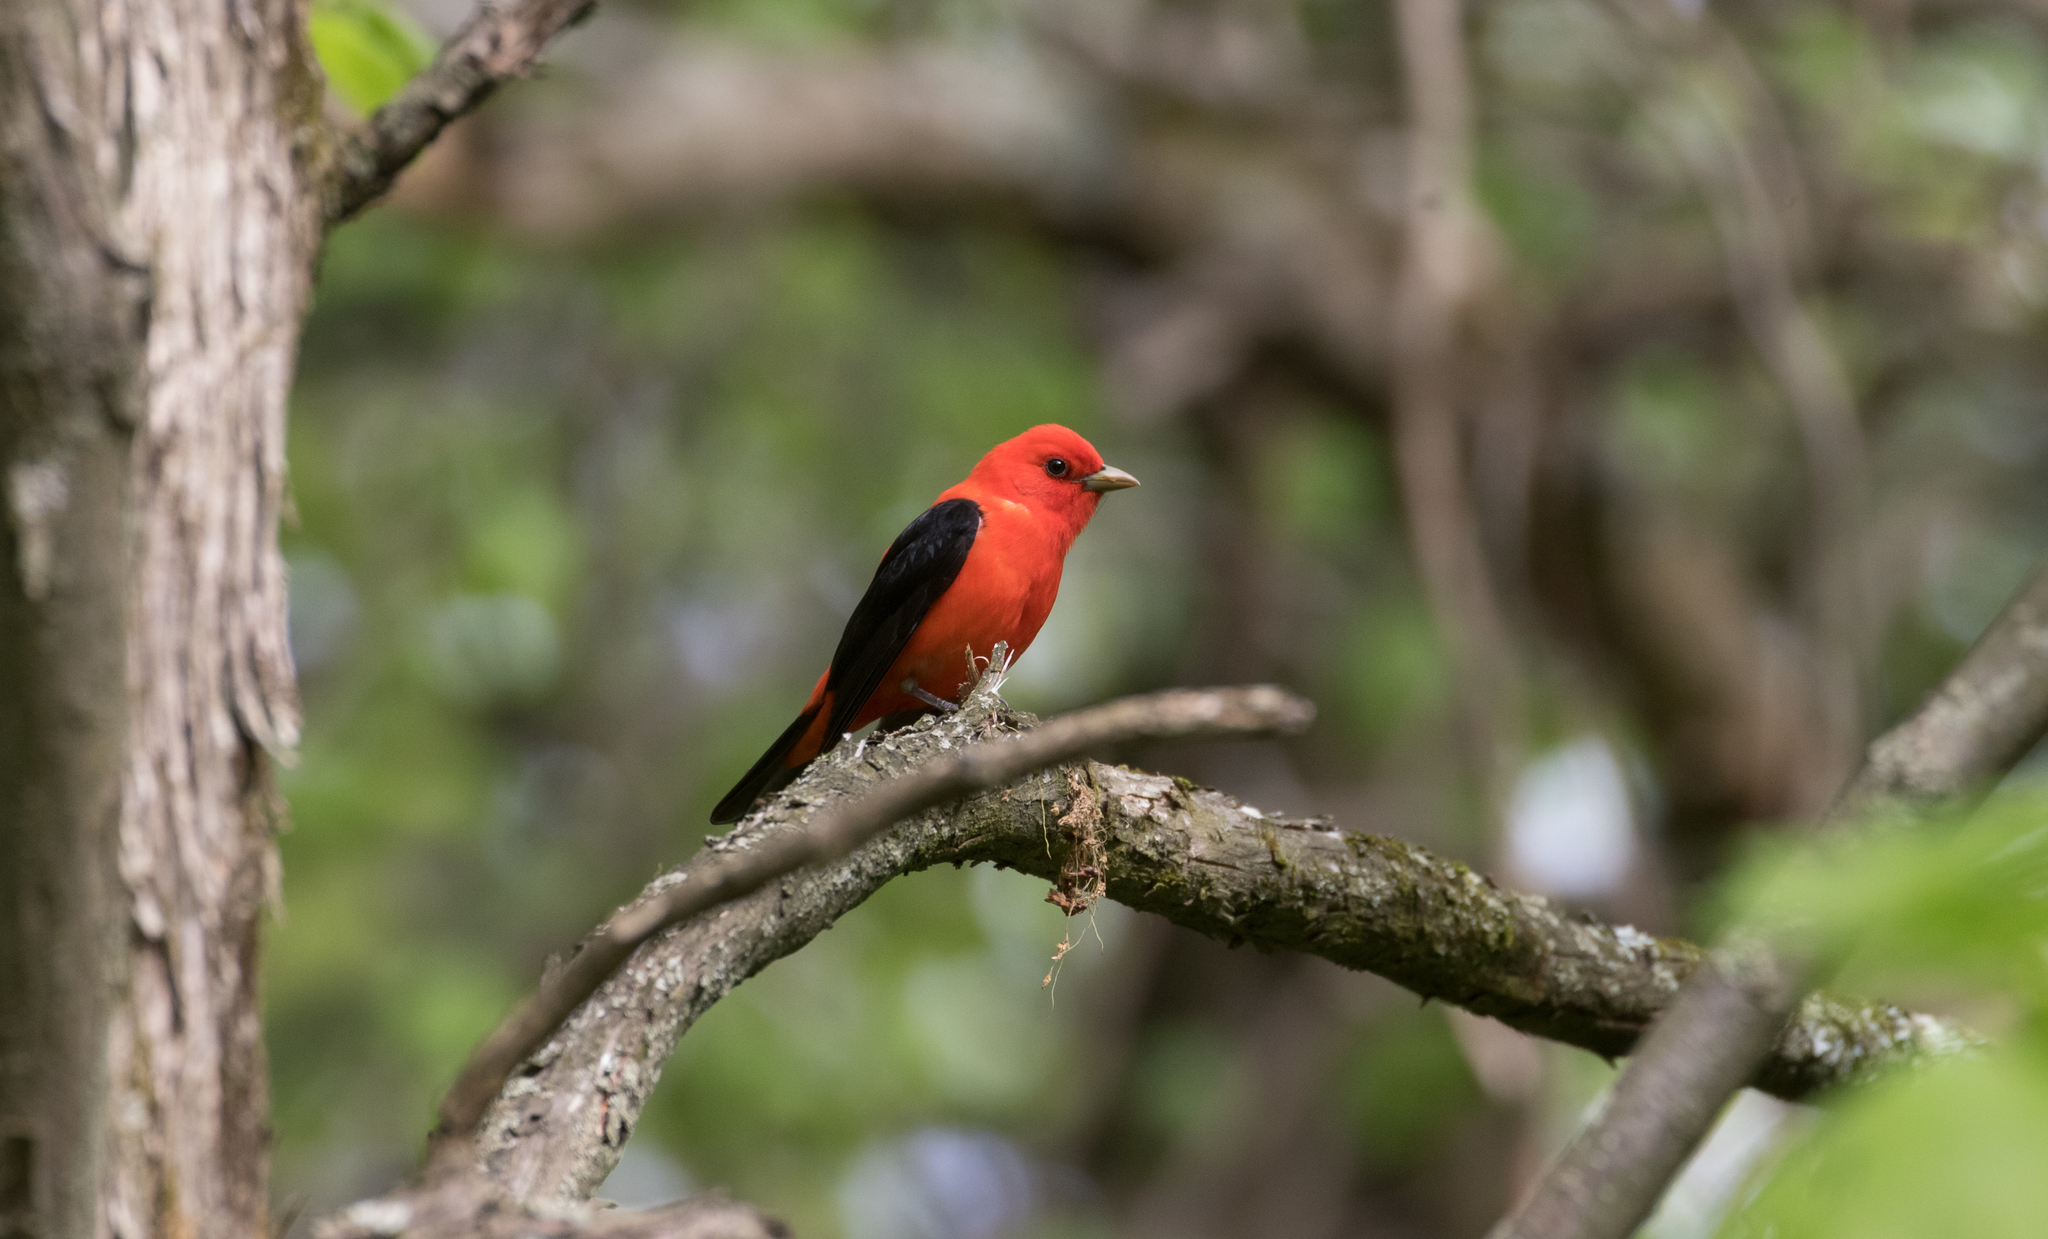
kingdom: Animalia
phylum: Chordata
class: Aves
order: Passeriformes
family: Cardinalidae
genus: Piranga
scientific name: Piranga olivacea
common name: Scarlet tanager
